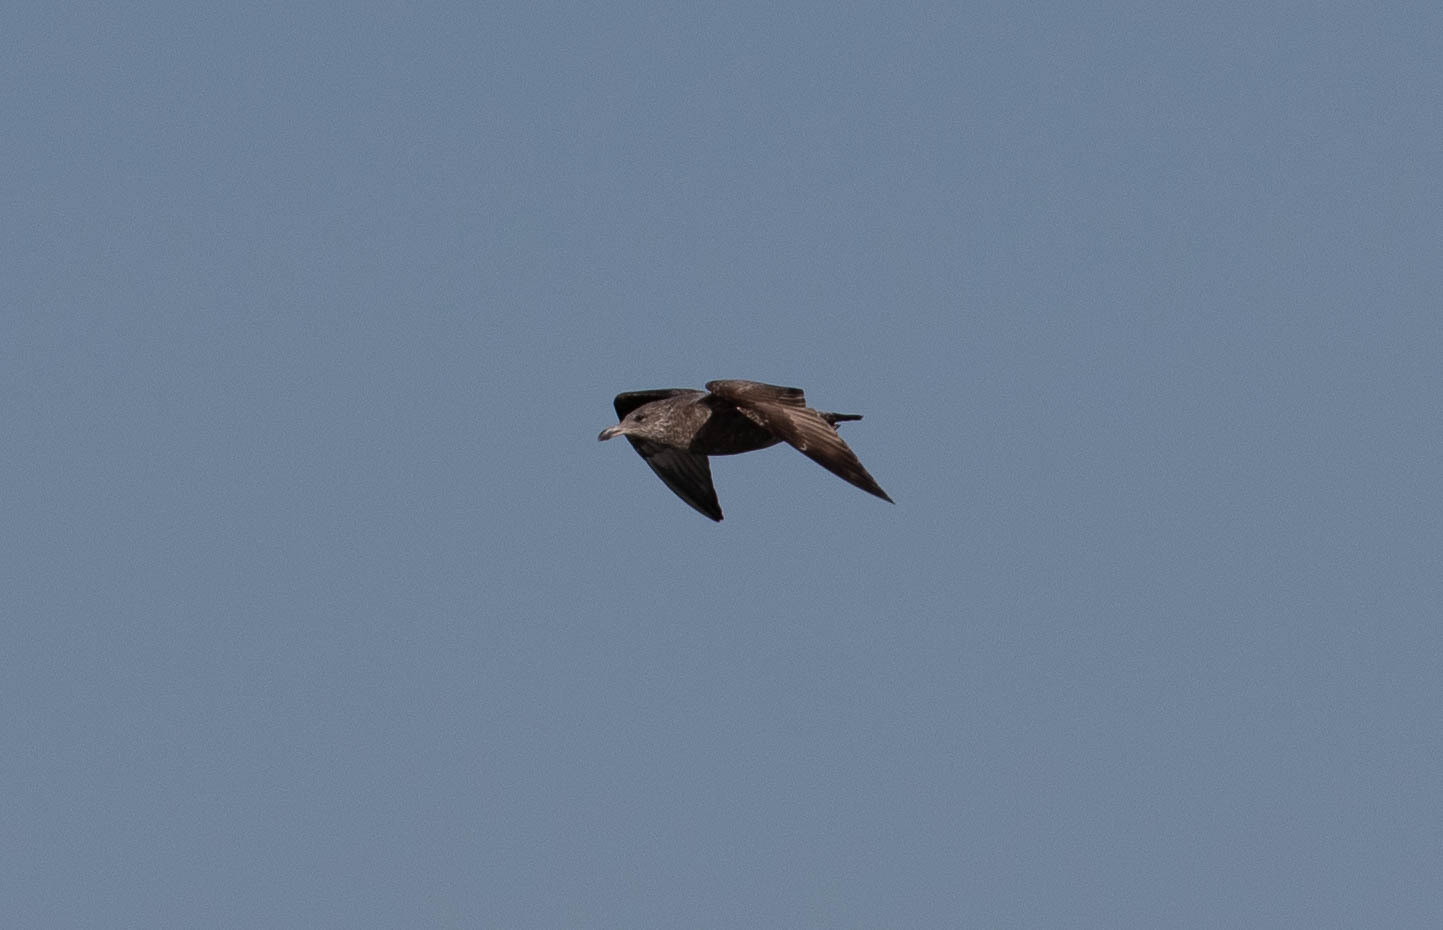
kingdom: Animalia
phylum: Chordata
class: Aves
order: Charadriiformes
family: Laridae
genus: Larus
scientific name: Larus argentatus
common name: Herring gull
